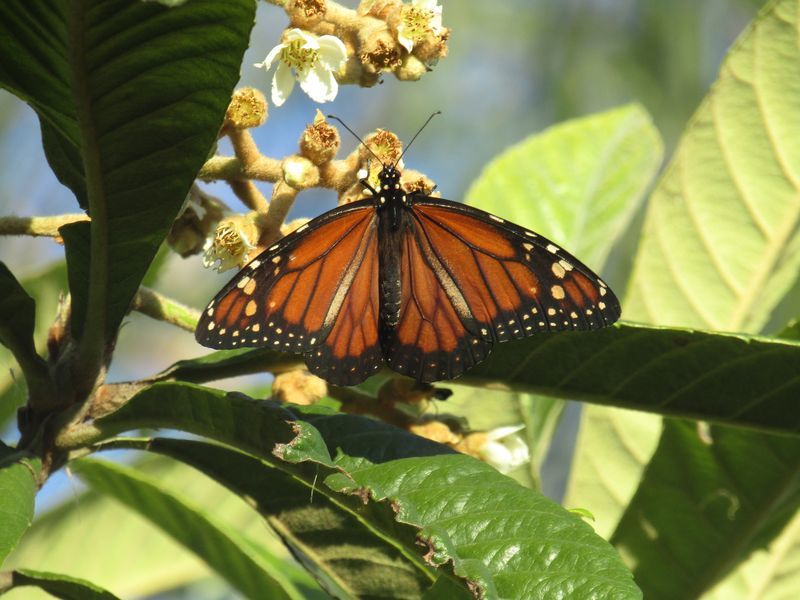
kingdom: Animalia
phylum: Arthropoda
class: Insecta
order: Lepidoptera
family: Nymphalidae
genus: Danaus
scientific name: Danaus erippus
